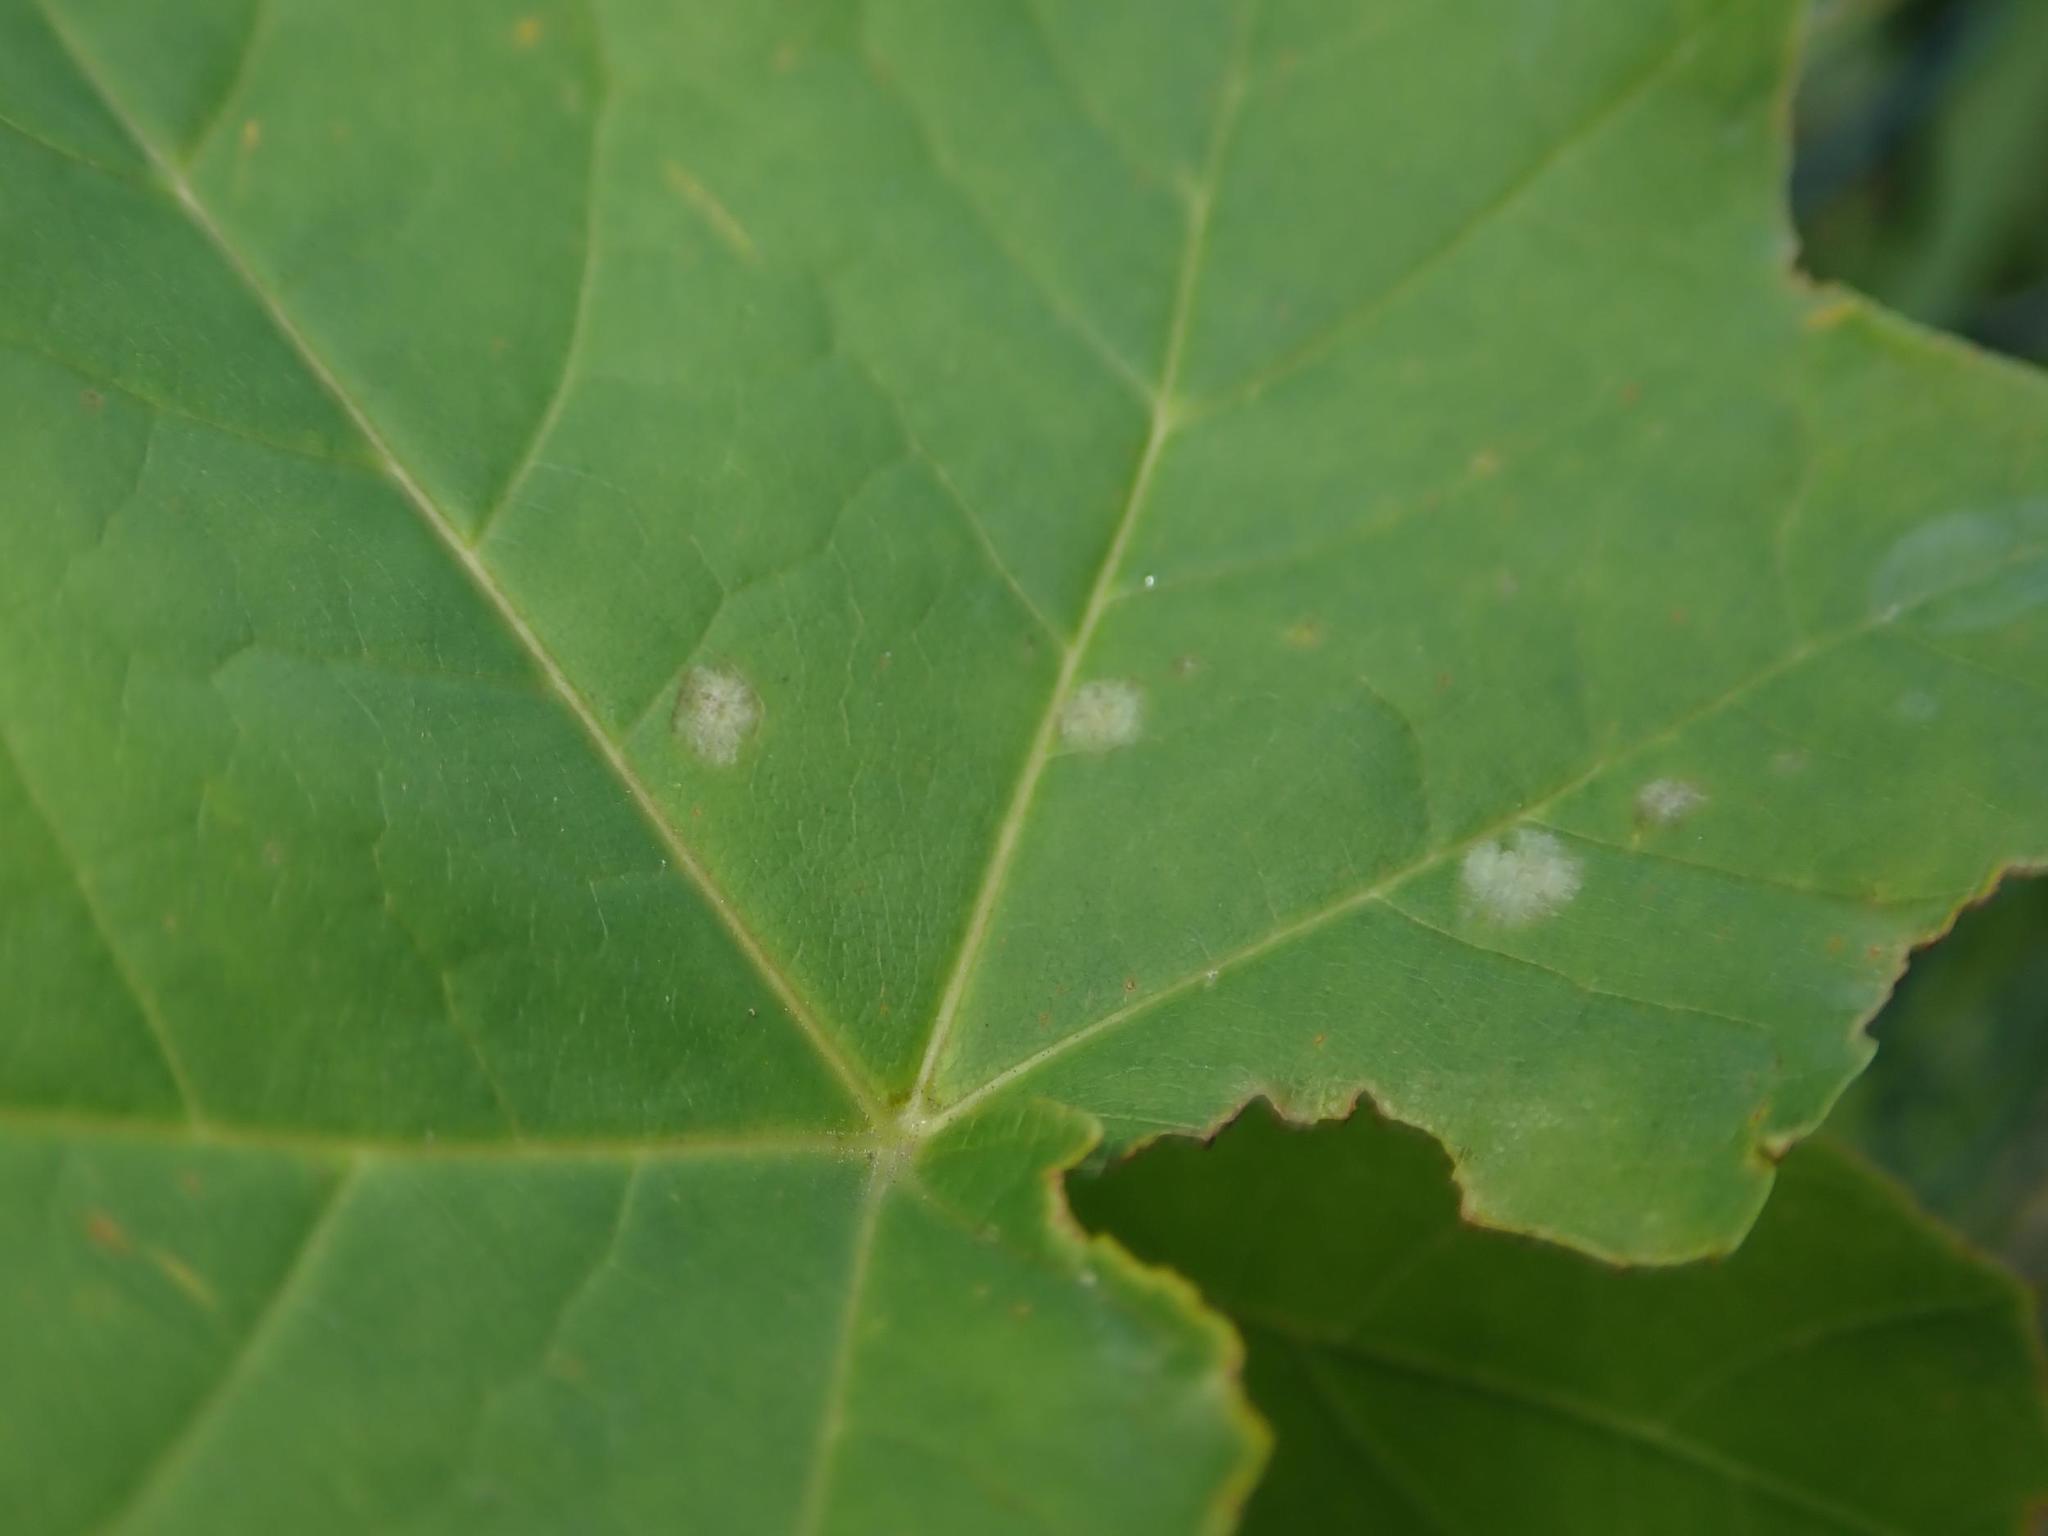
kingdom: Fungi
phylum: Ascomycota
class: Leotiomycetes
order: Helotiales
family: Erysiphaceae
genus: Sawadaea
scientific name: Sawadaea tulasnei
